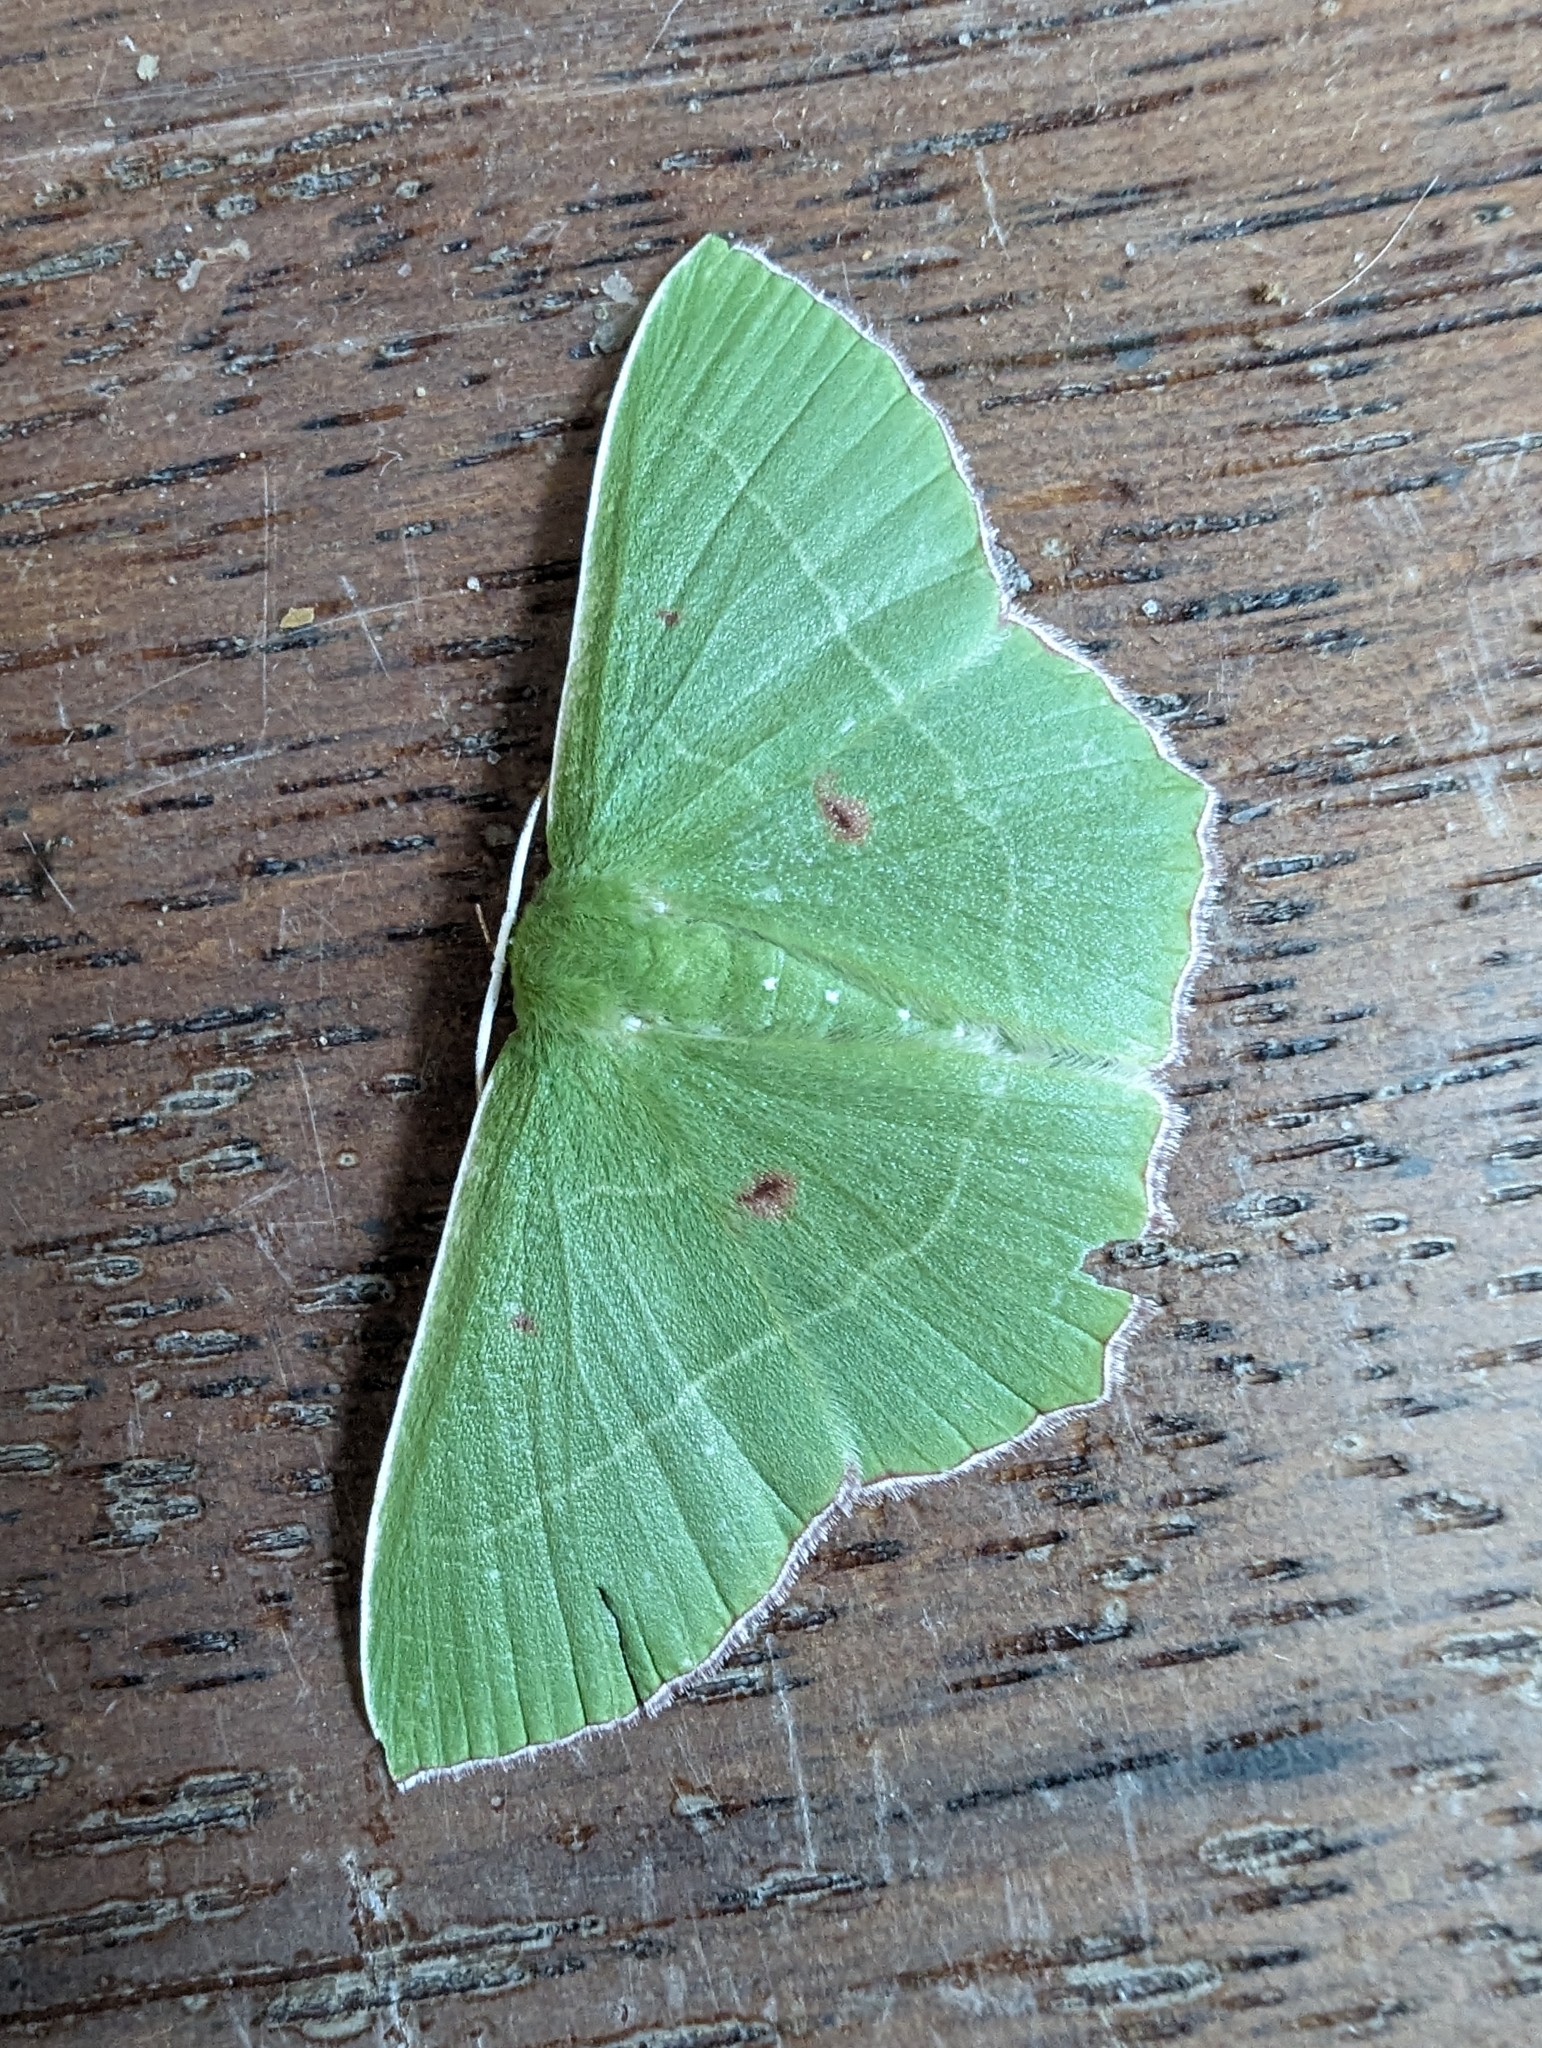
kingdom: Animalia
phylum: Arthropoda
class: Insecta
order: Lepidoptera
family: Geometridae
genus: Chrysochloroma
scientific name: Chrysochloroma megaloptera
